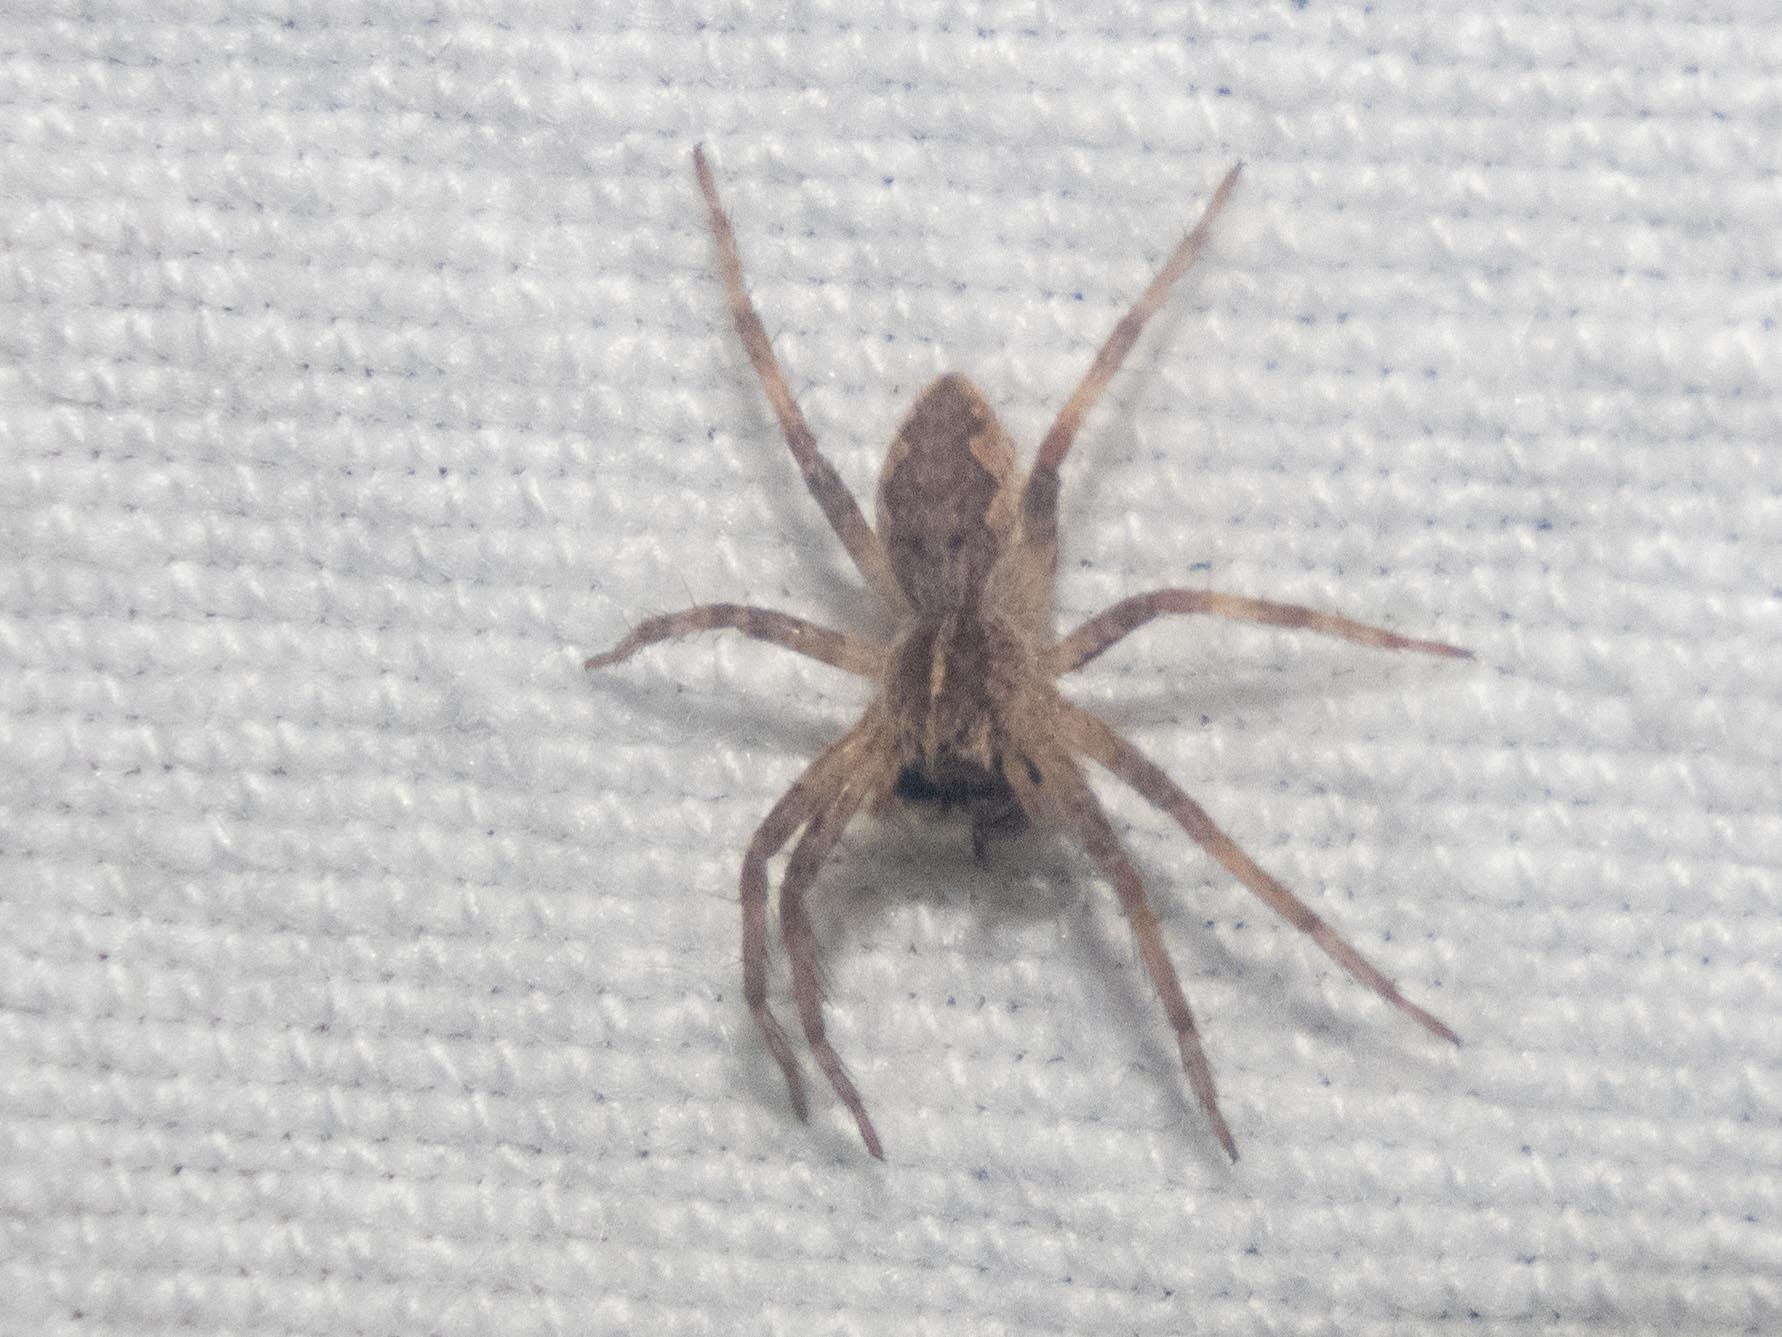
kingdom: Animalia
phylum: Arthropoda
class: Arachnida
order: Araneae
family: Pisauridae
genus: Pisaura
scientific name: Pisaura mirabilis
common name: Tent spider
